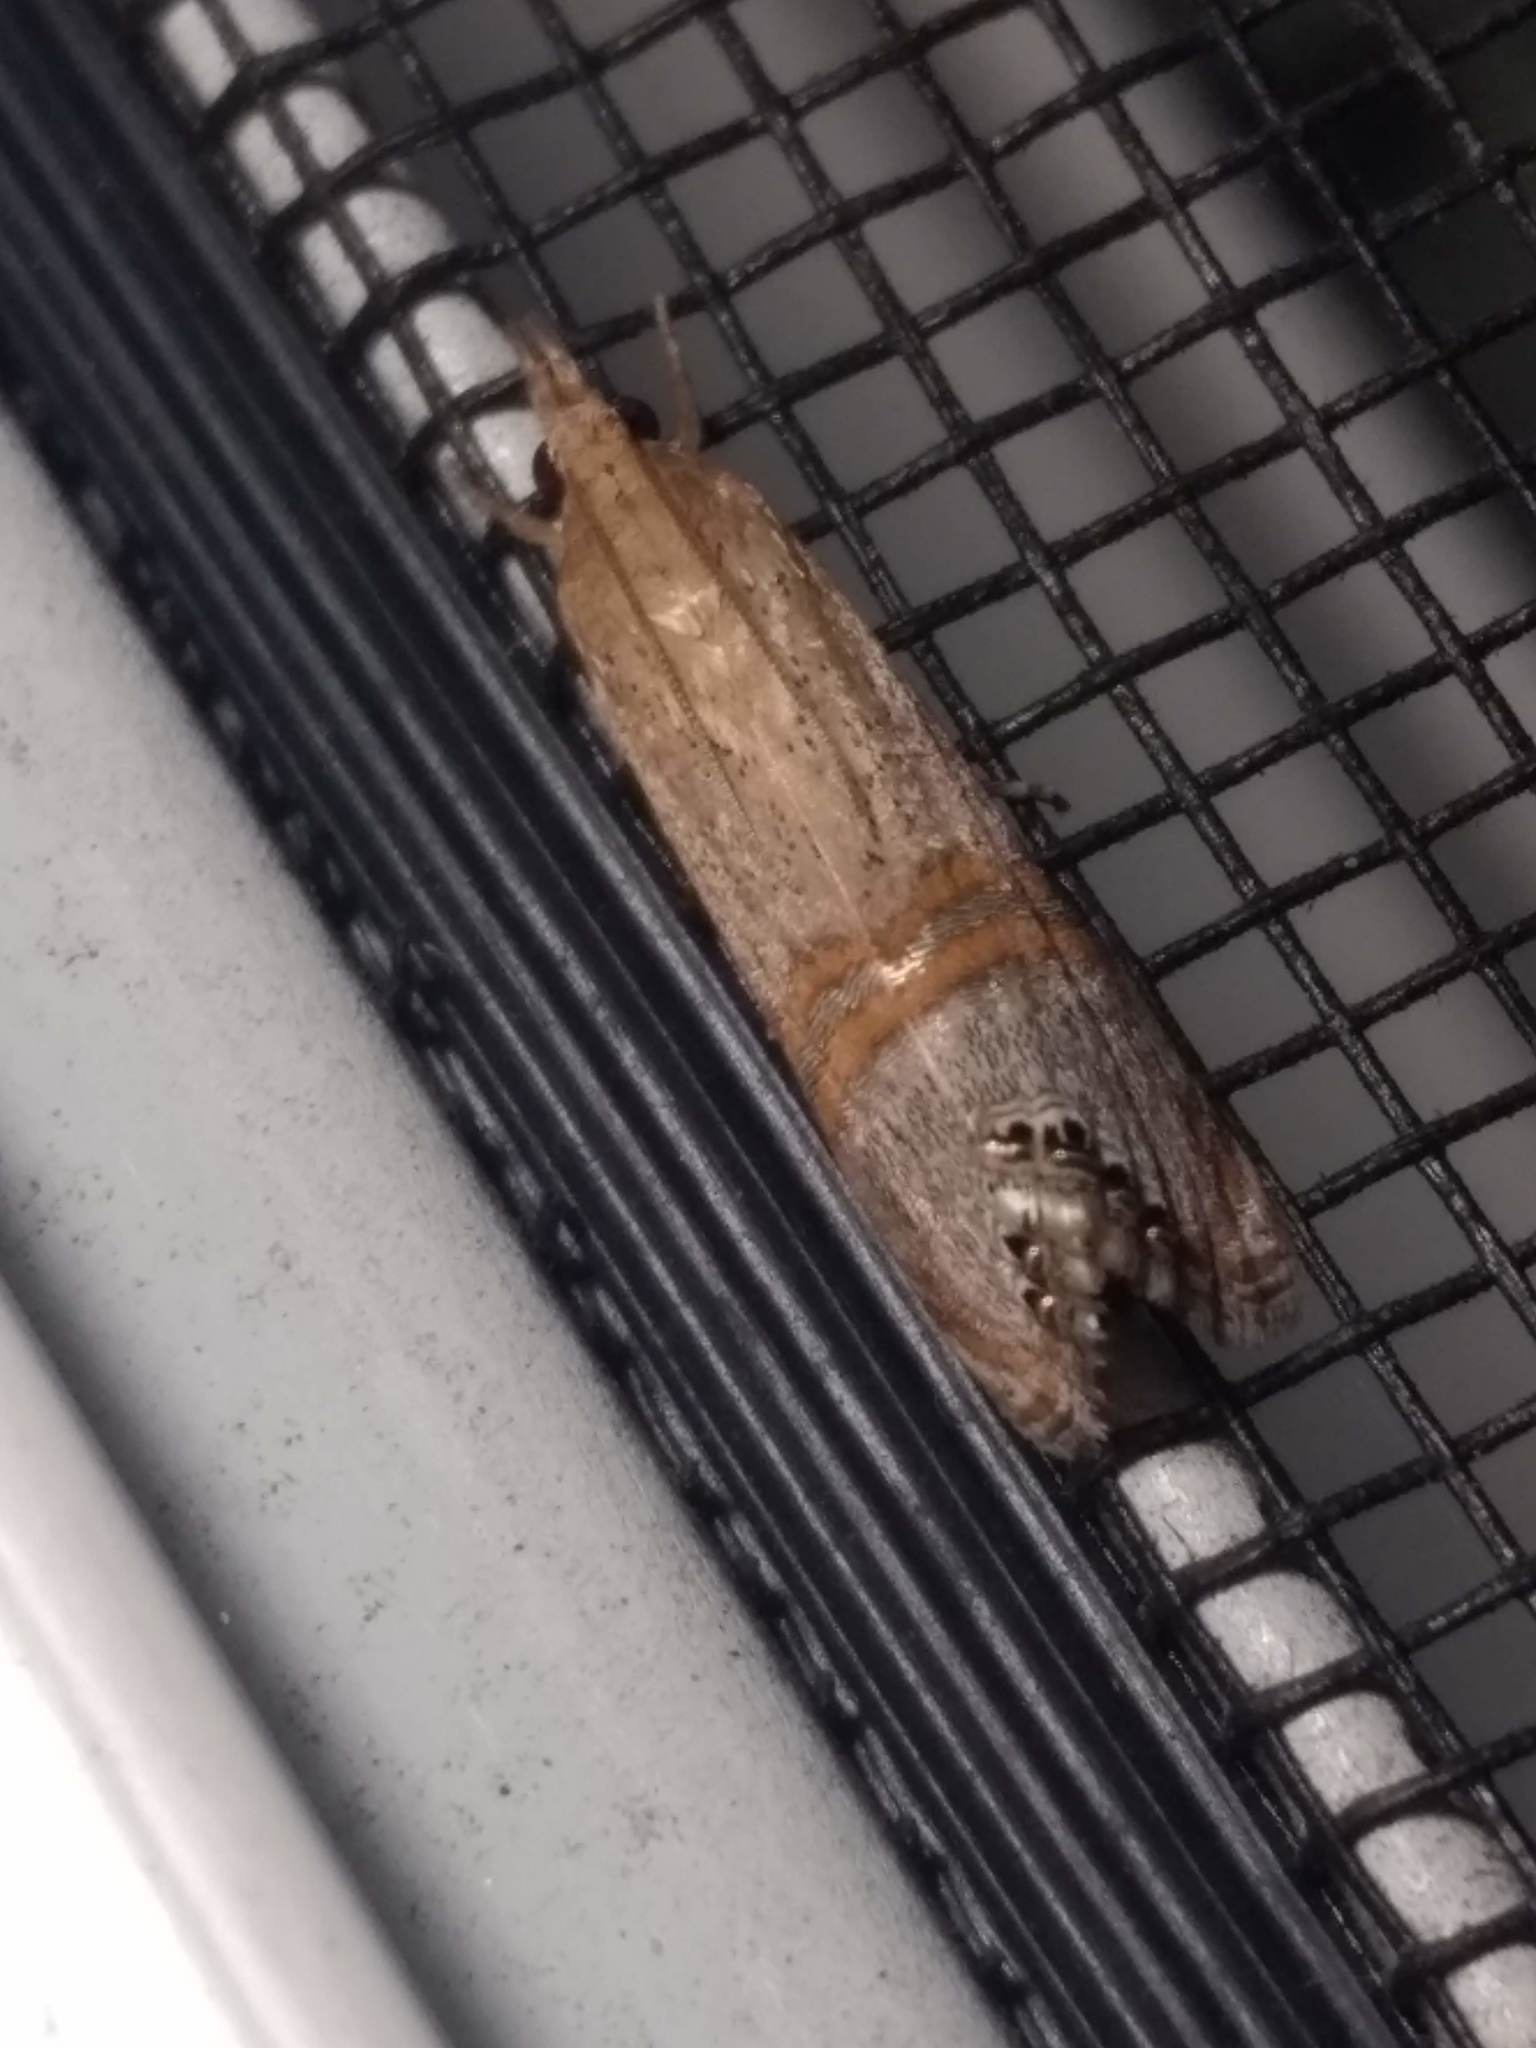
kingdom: Animalia
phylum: Arthropoda
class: Insecta
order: Lepidoptera
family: Crambidae
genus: Euchromius
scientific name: Euchromius ocellea
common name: Necklace veneer moth
